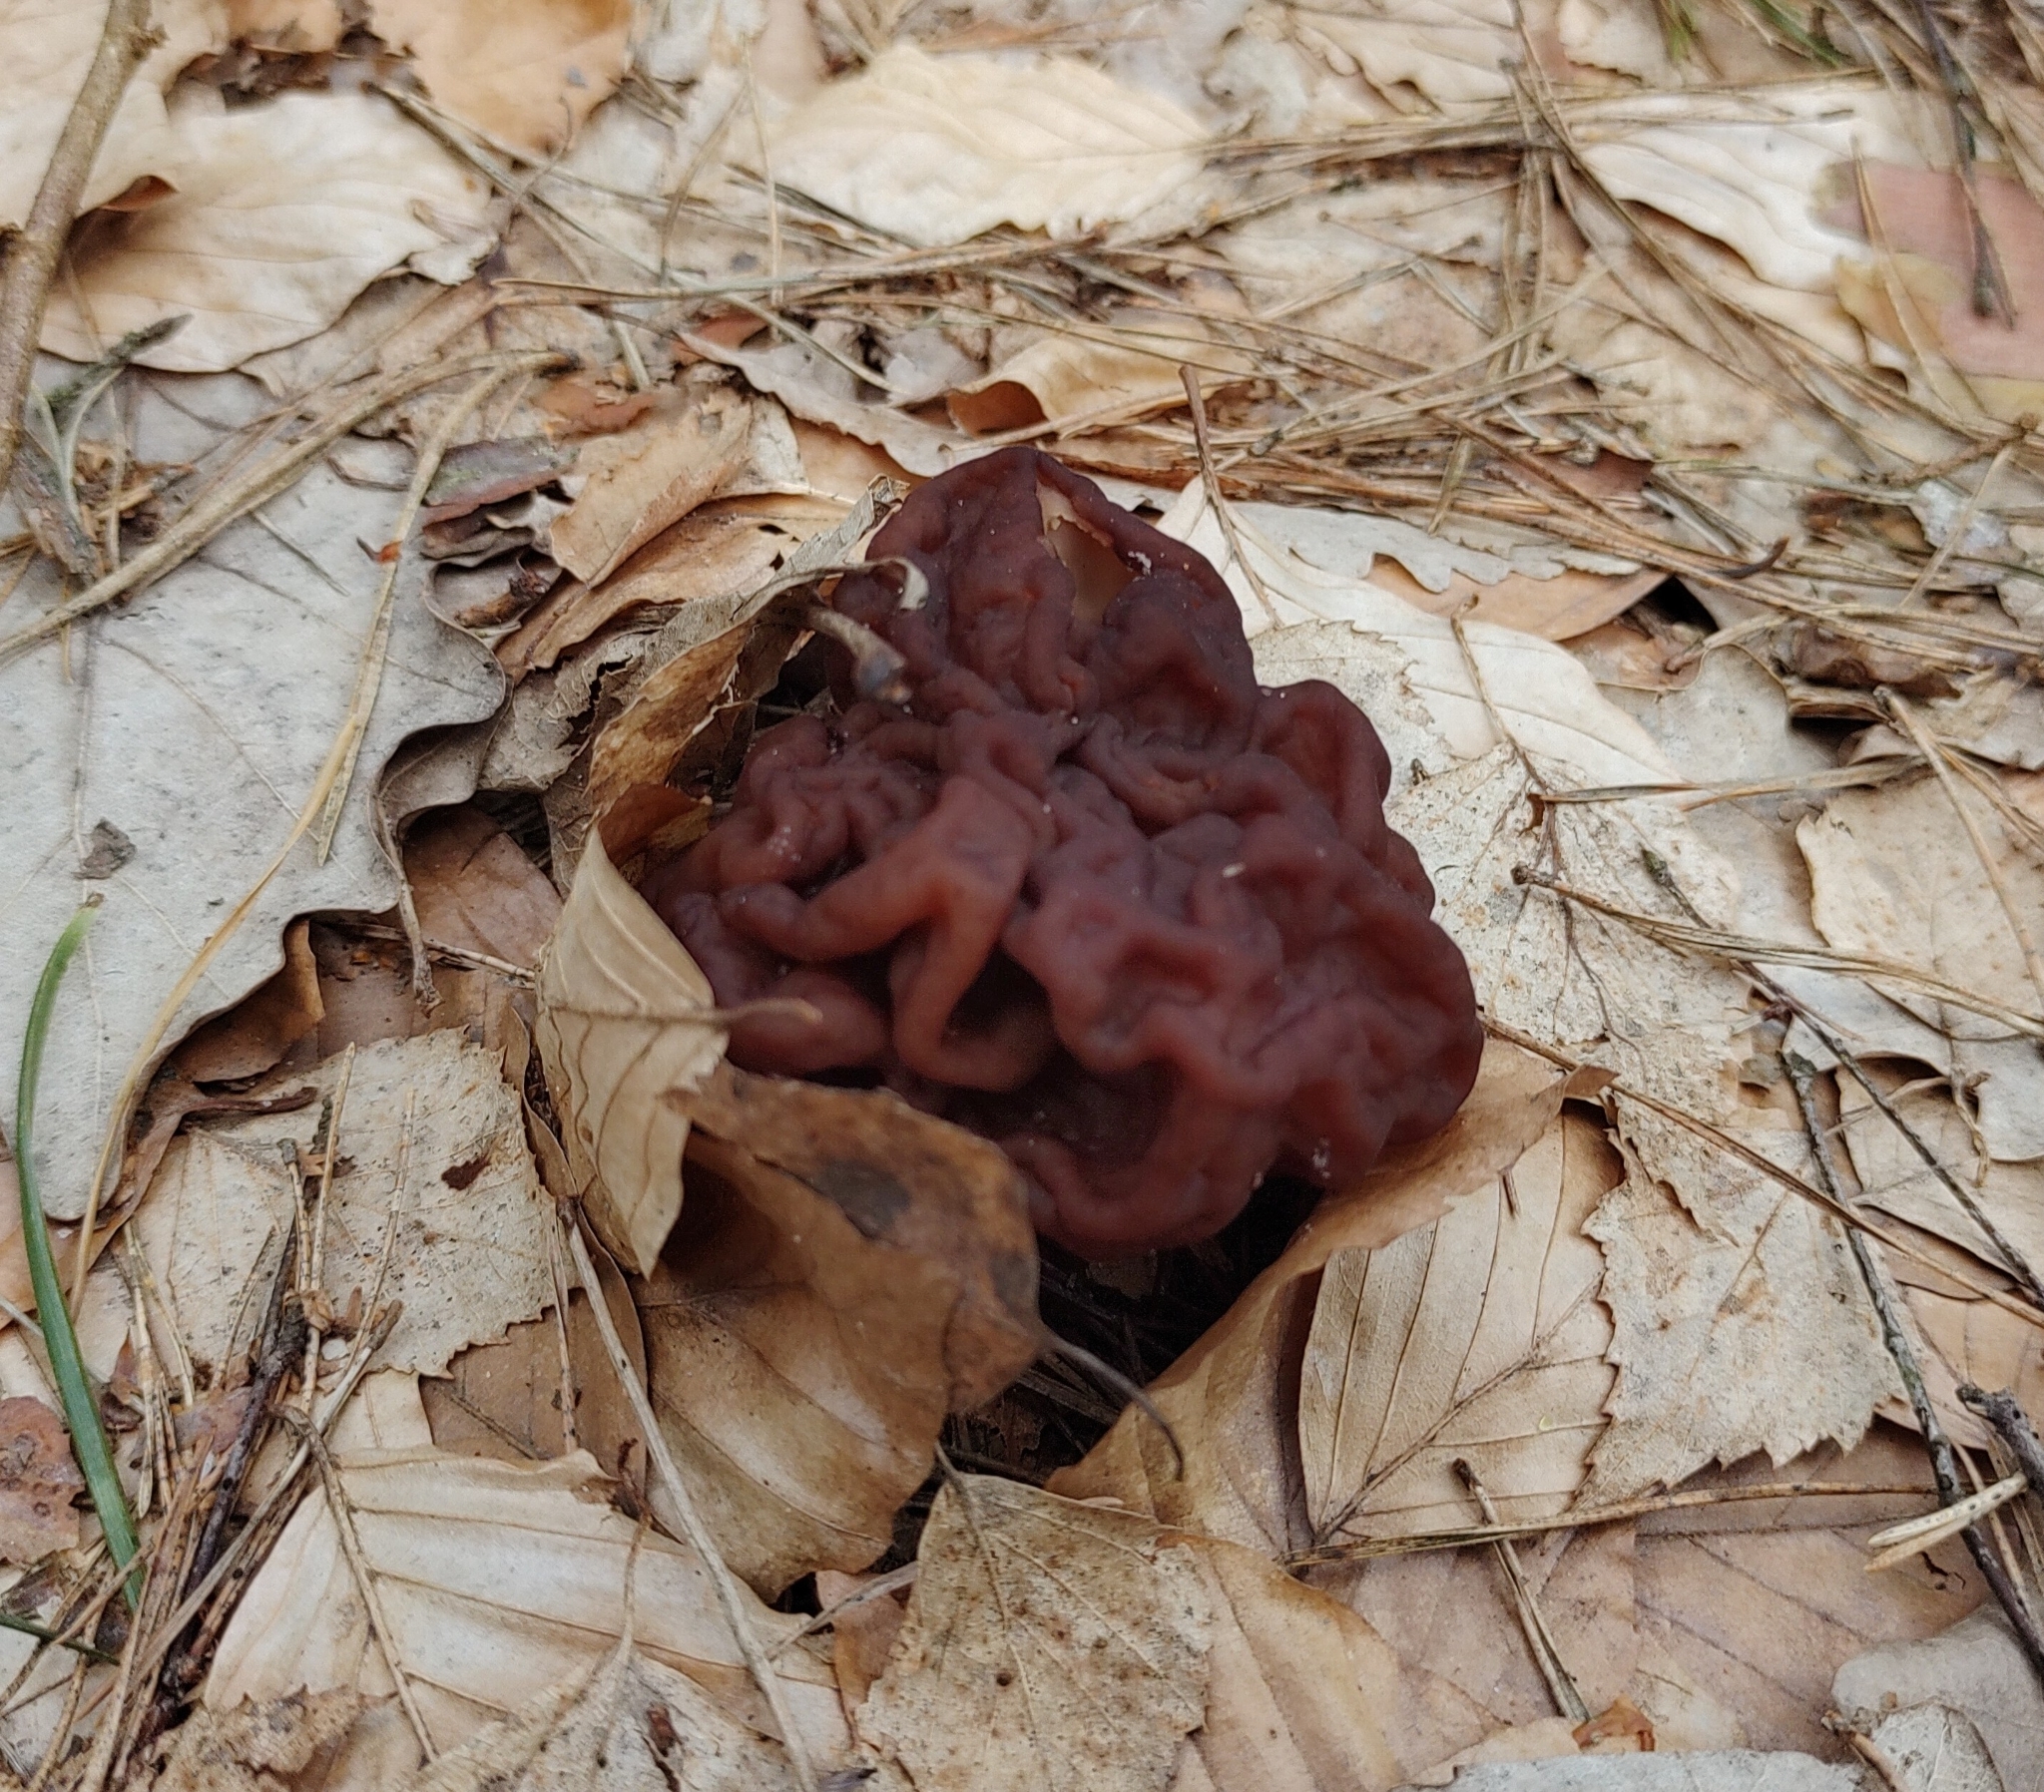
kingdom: Fungi
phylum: Ascomycota
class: Pezizomycetes
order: Pezizales
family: Discinaceae
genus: Gyromitra
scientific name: Gyromitra esculenta
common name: False morel
